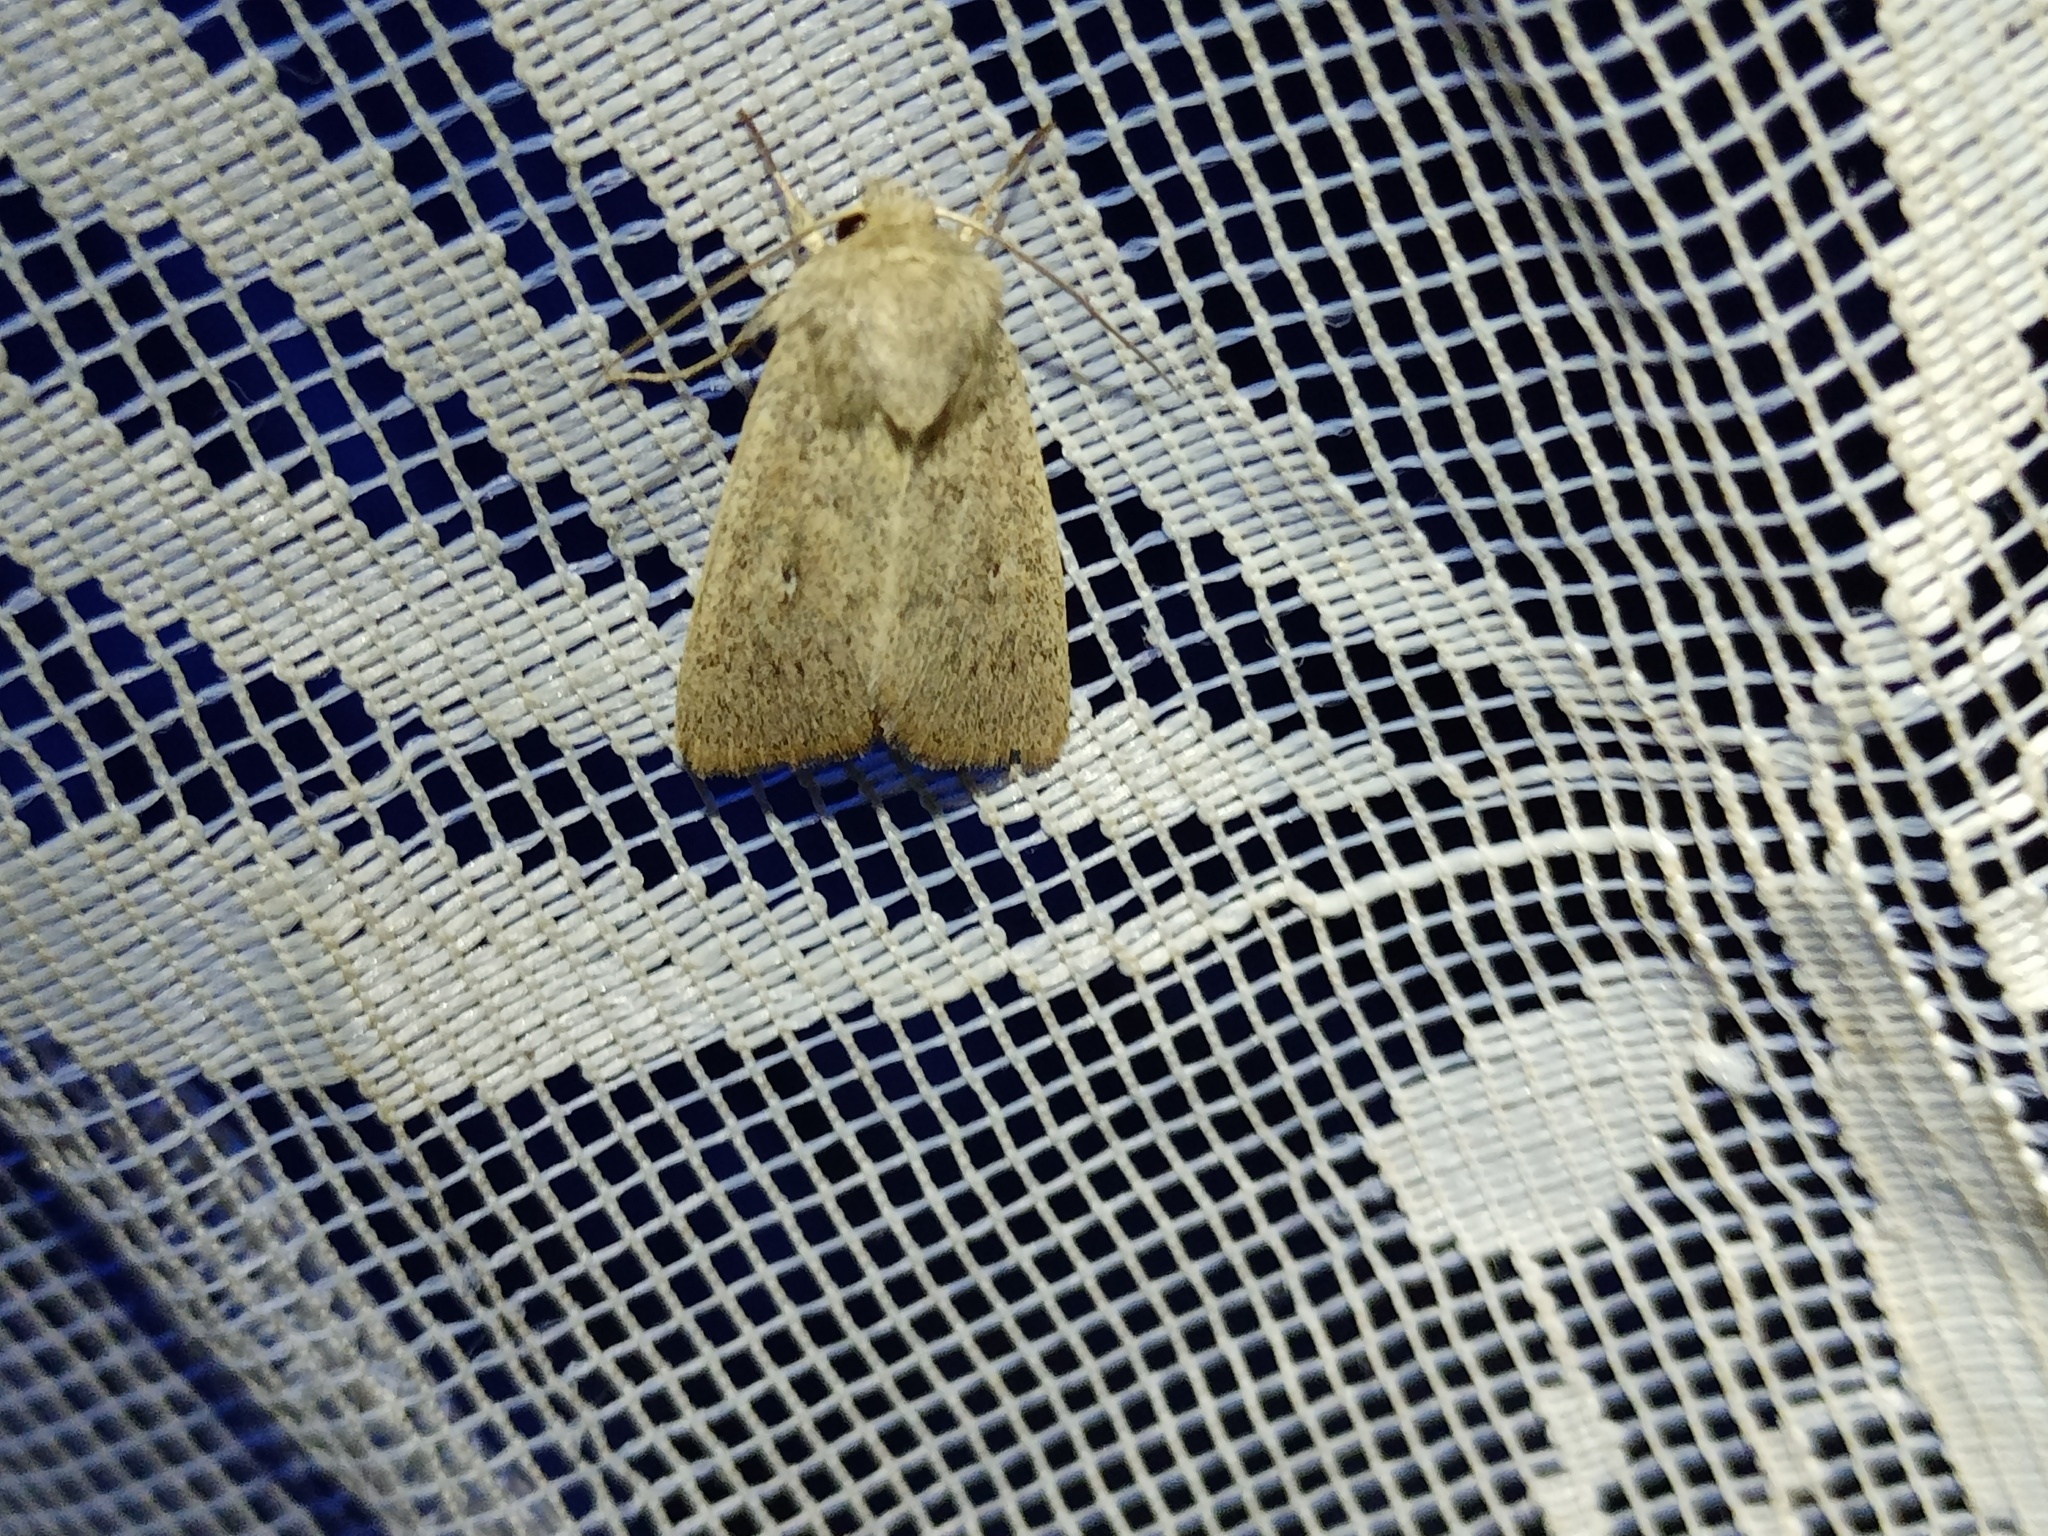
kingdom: Animalia
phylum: Arthropoda
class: Insecta
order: Lepidoptera
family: Noctuidae
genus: Mythimna
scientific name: Mythimna sicula
